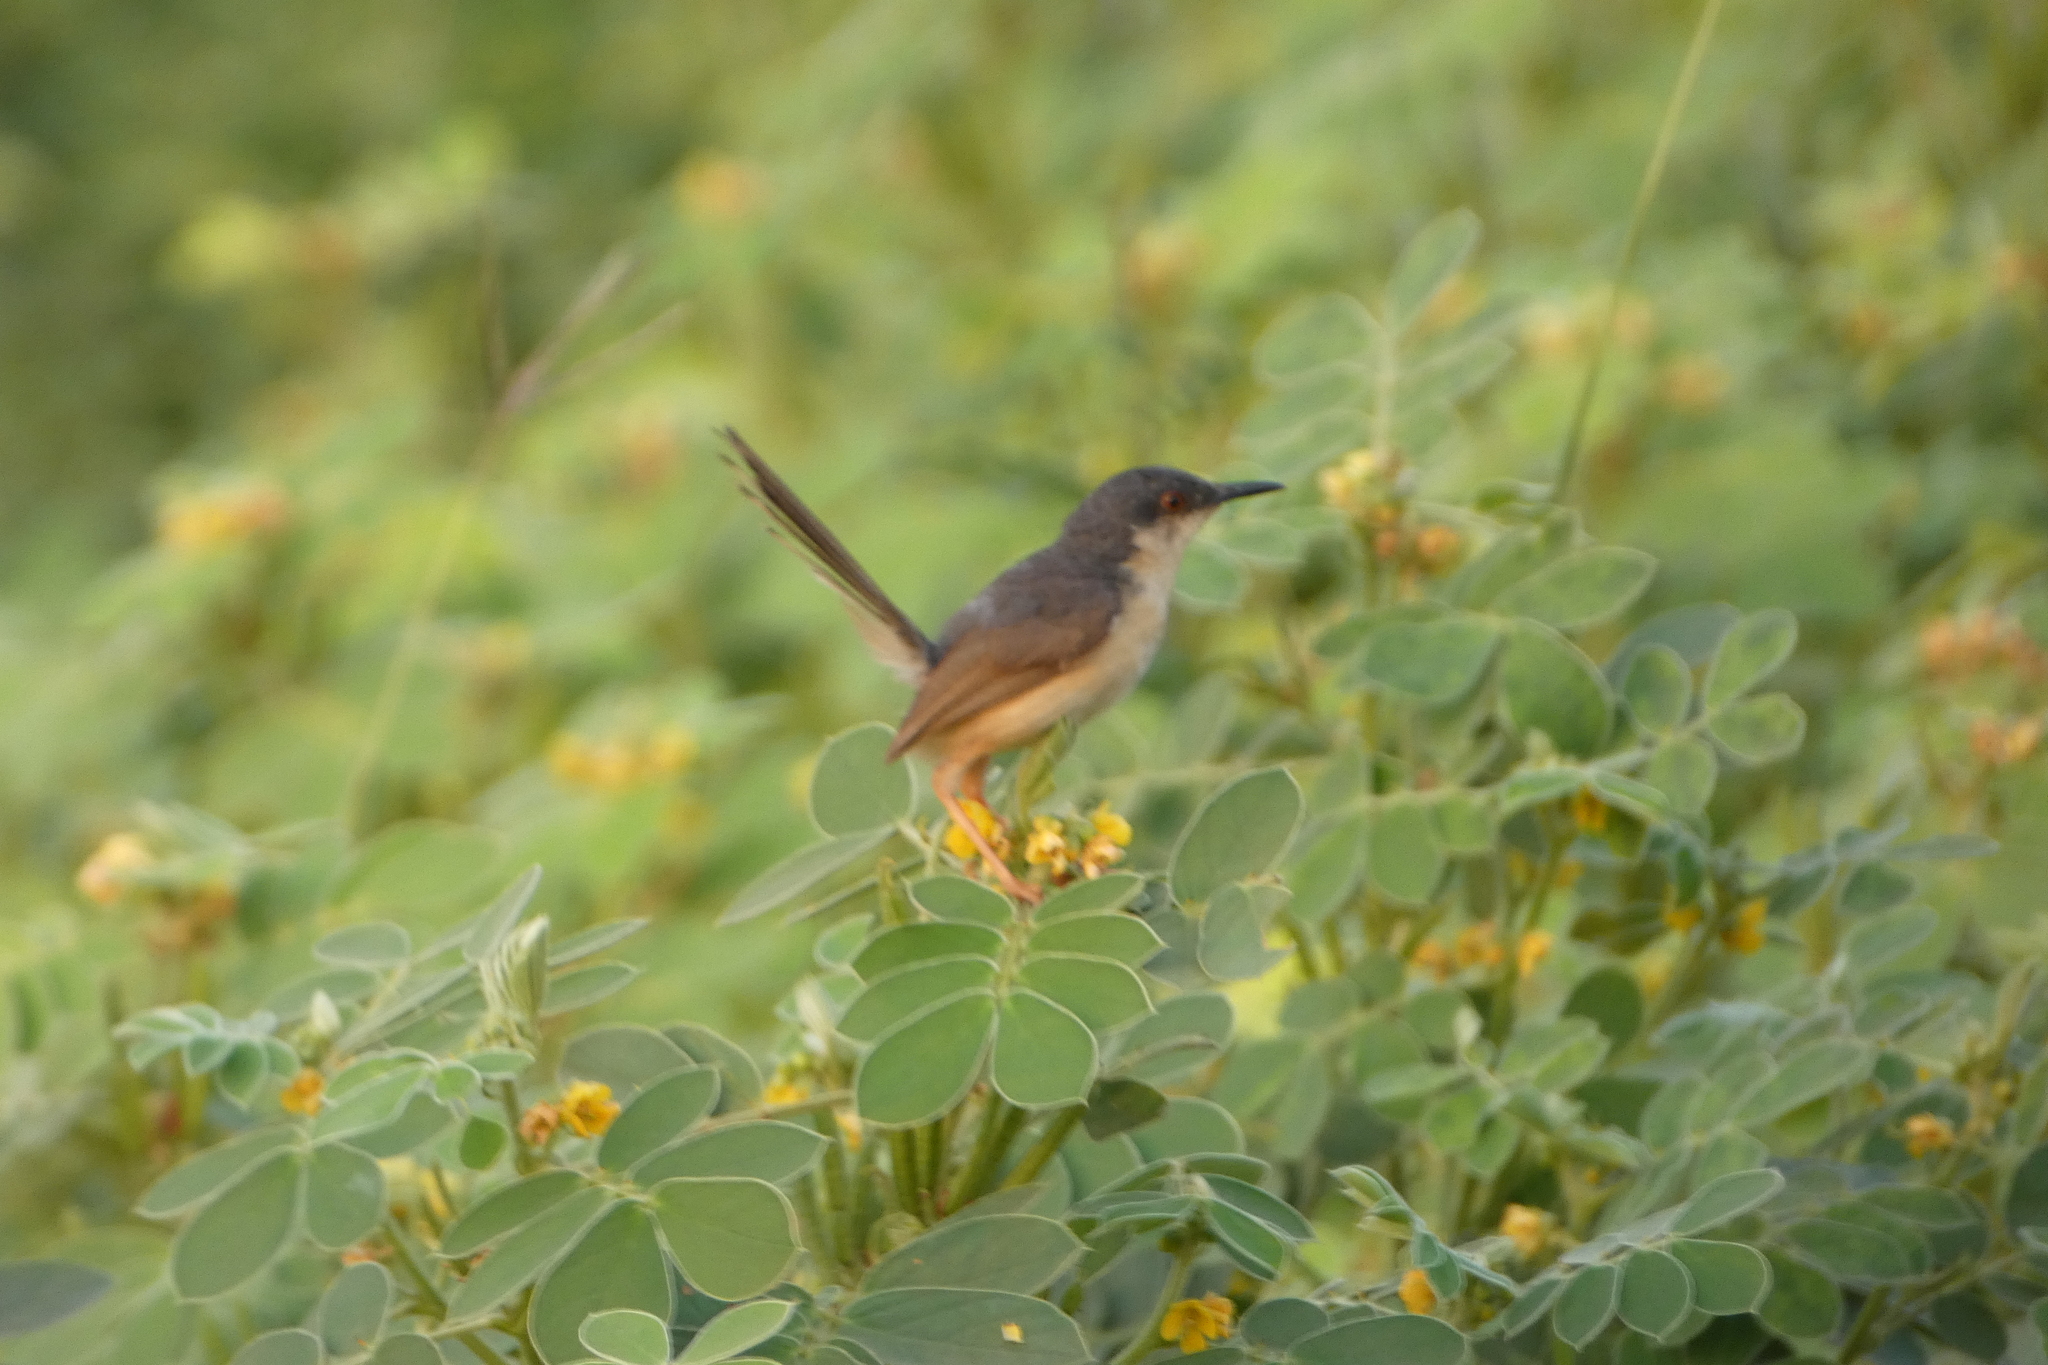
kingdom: Animalia
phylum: Chordata
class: Aves
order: Passeriformes
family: Cisticolidae
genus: Prinia
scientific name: Prinia socialis
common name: Ashy prinia
